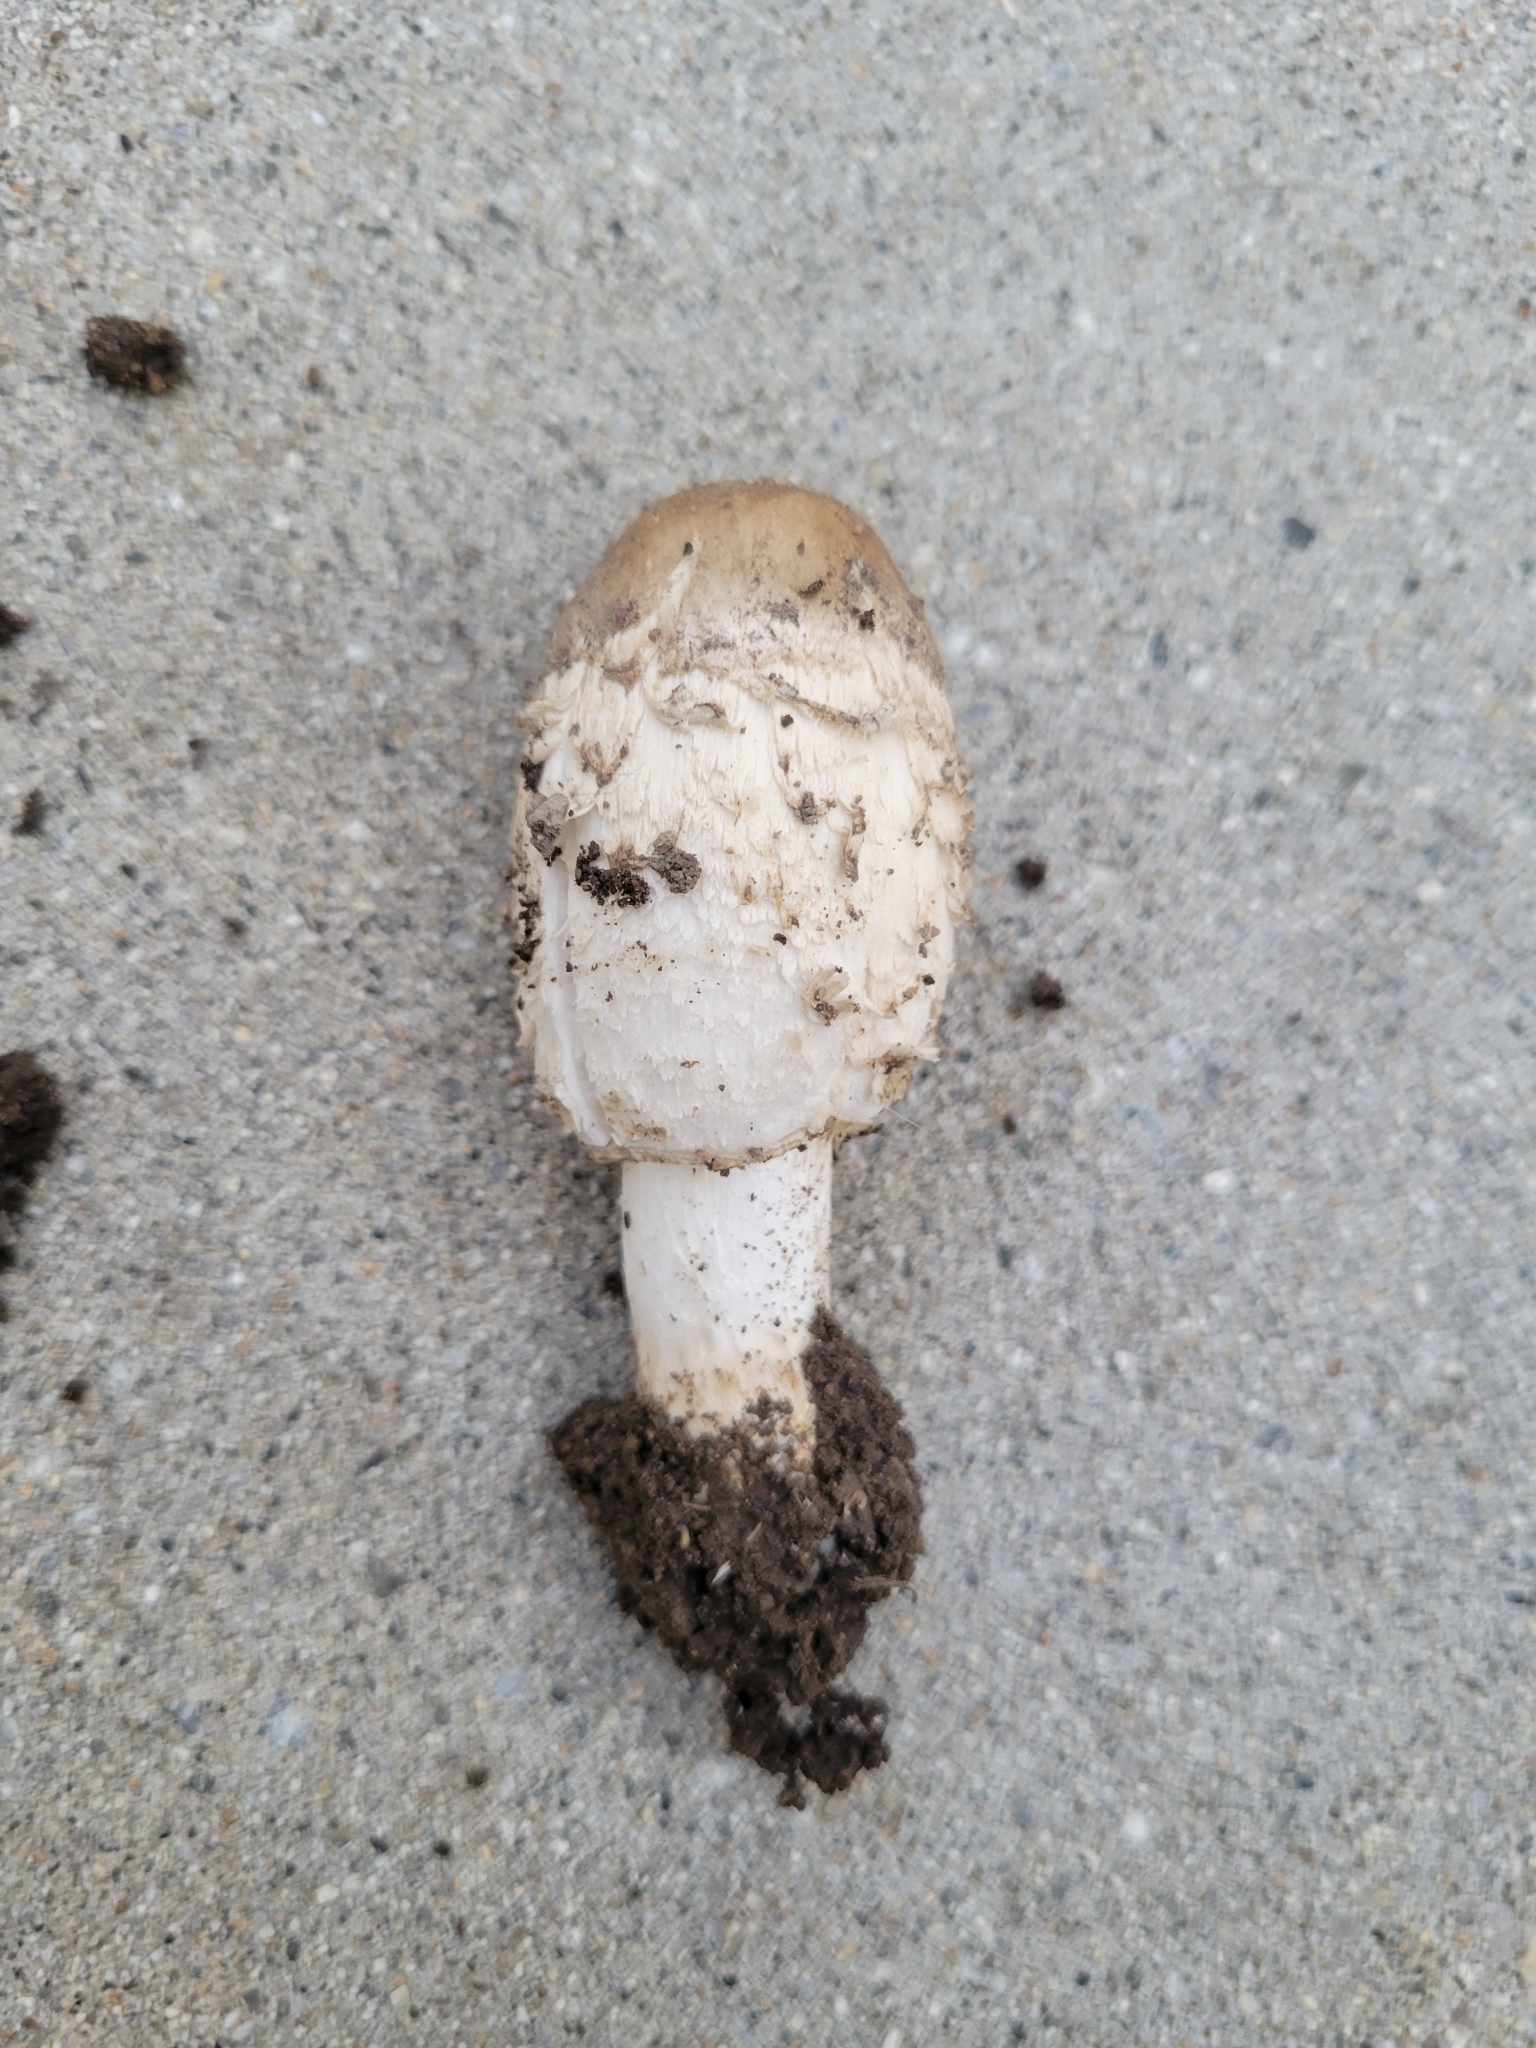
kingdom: Fungi
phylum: Basidiomycota
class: Agaricomycetes
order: Agaricales
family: Agaricaceae
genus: Coprinus
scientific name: Coprinus comatus
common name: Lawyer's wig
